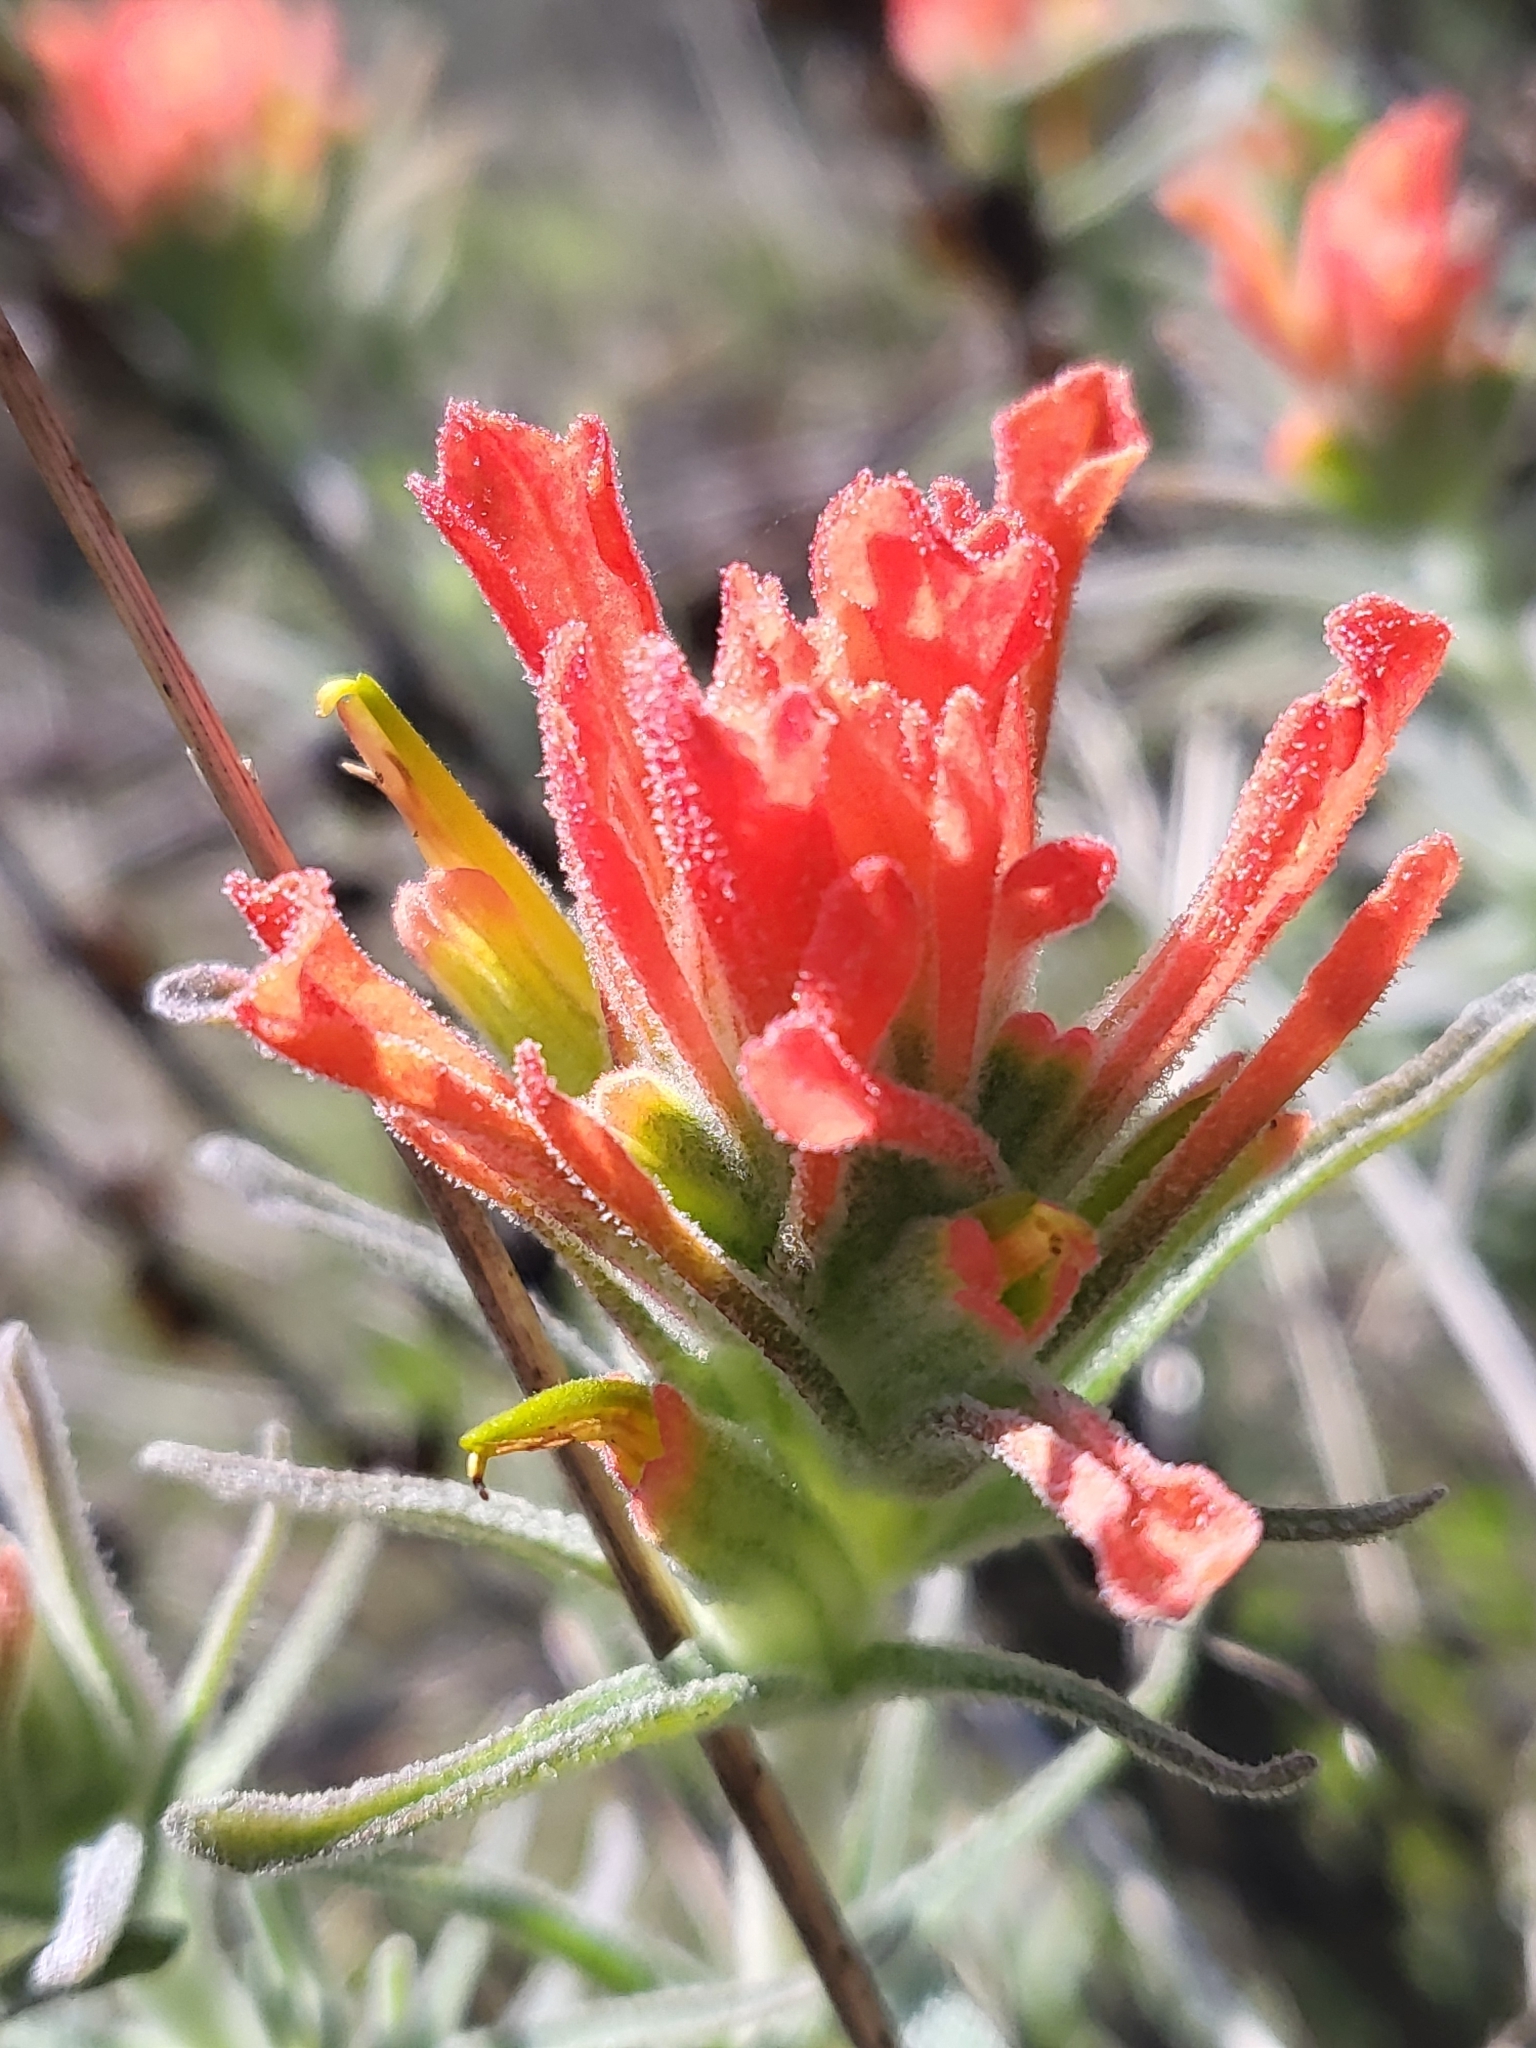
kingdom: Plantae
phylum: Tracheophyta
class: Magnoliopsida
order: Lamiales
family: Orobanchaceae
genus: Castilleja
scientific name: Castilleja foliolosa
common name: Woolly indian paintbrush
